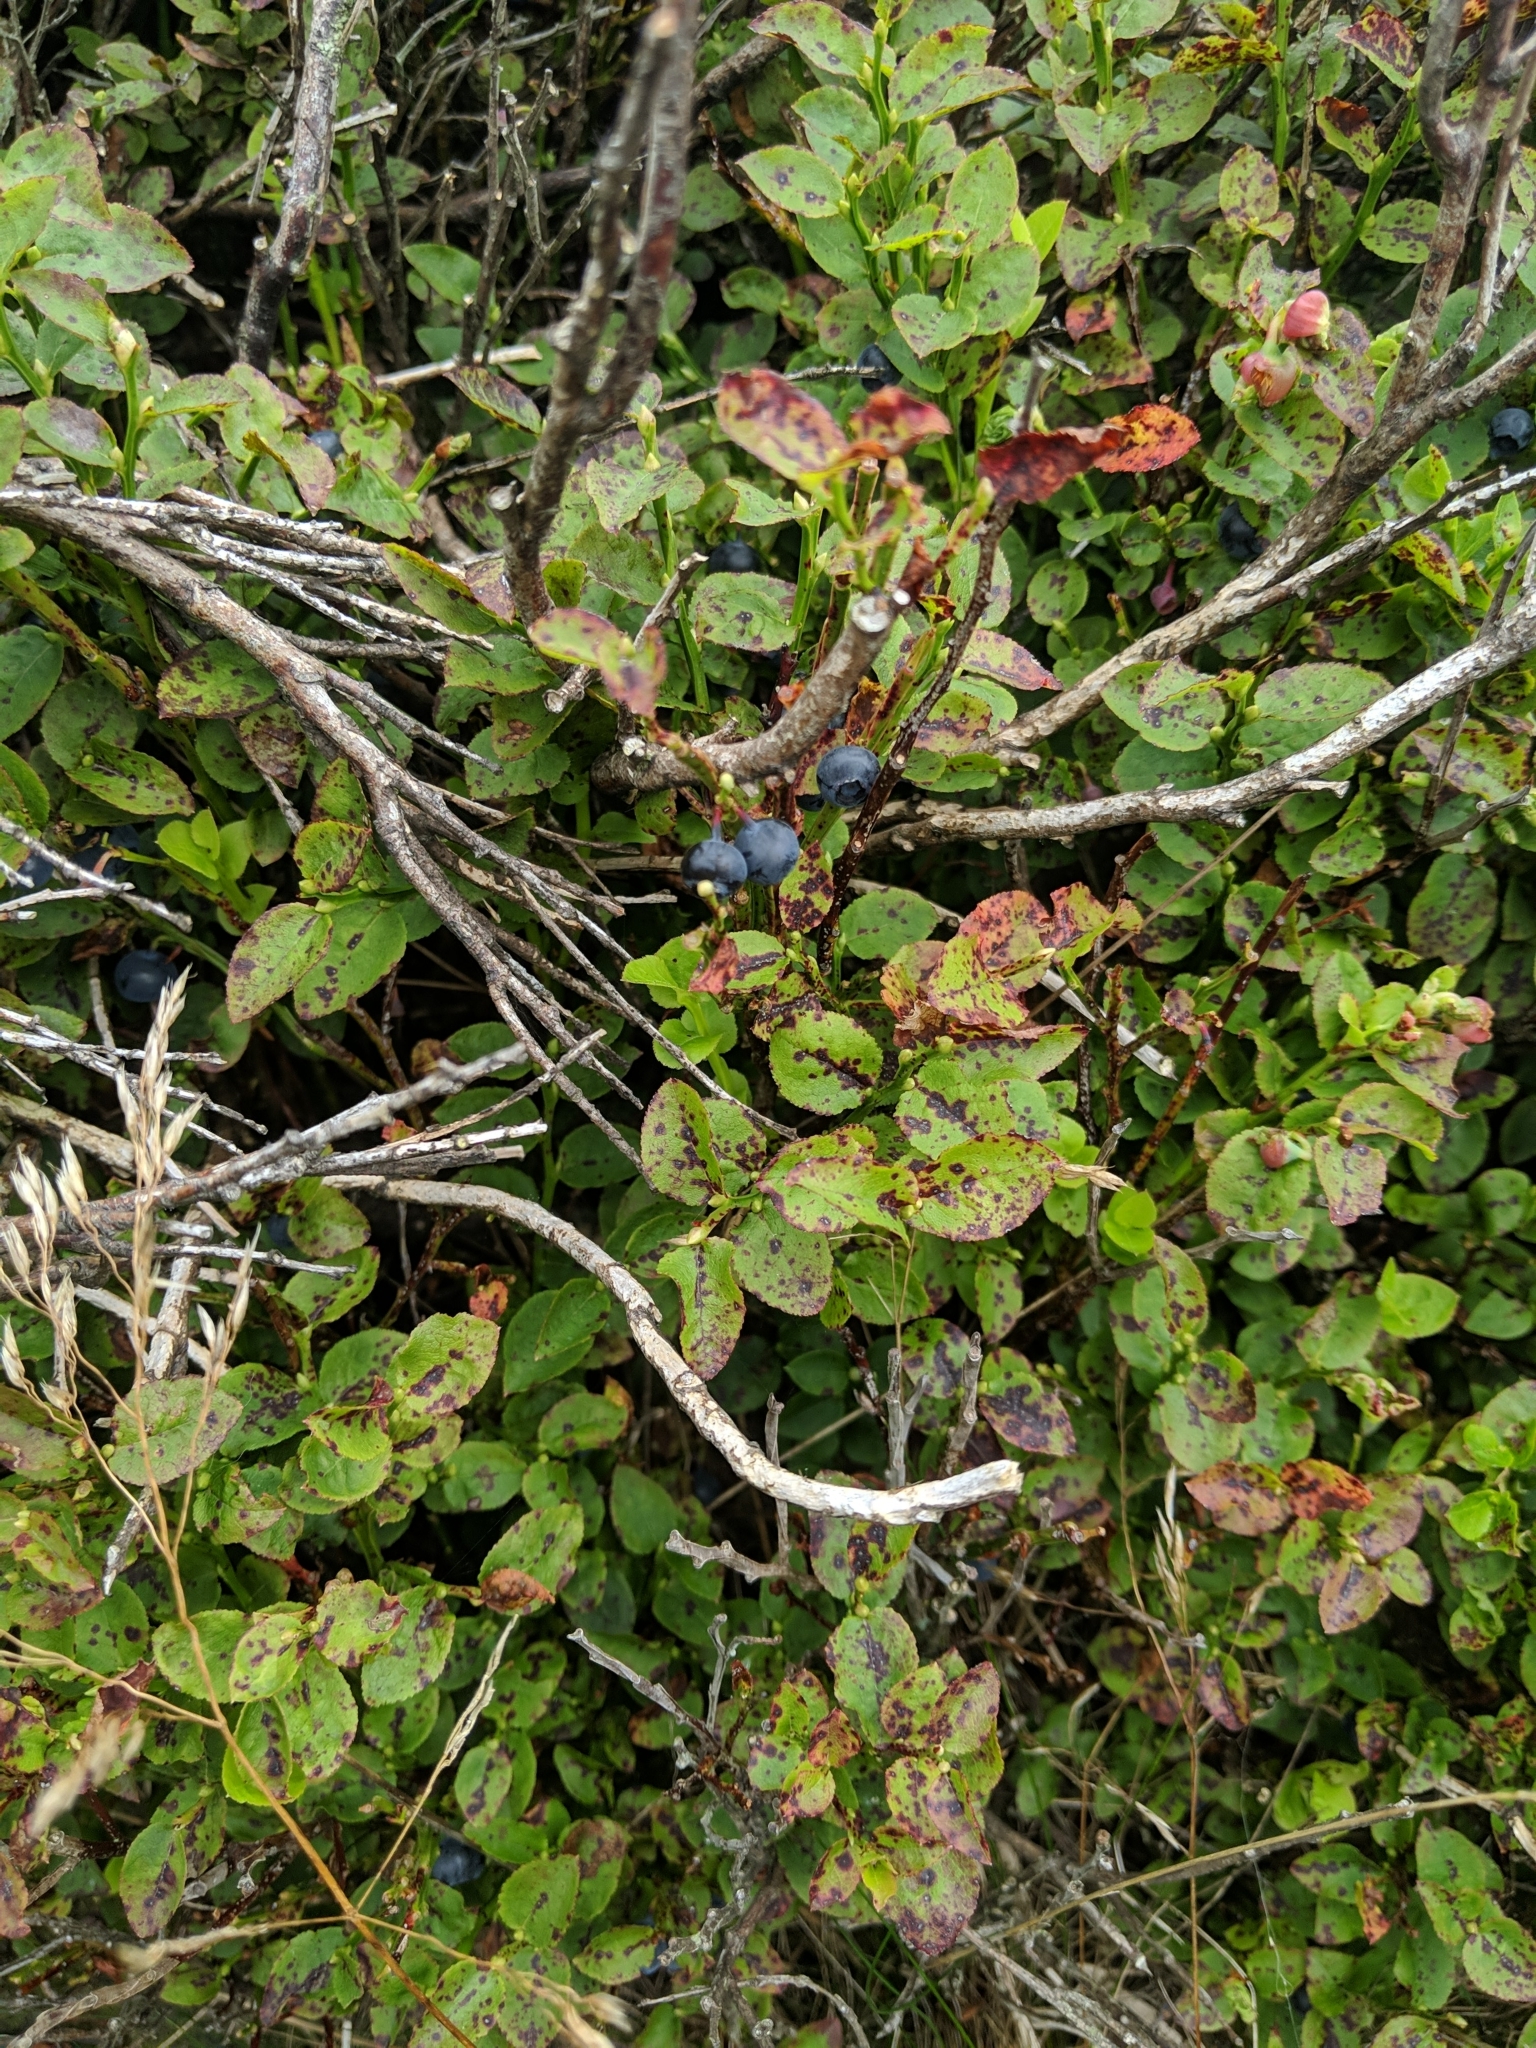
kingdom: Plantae
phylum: Tracheophyta
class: Magnoliopsida
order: Ericales
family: Ericaceae
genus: Vaccinium
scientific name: Vaccinium myrtillus
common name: Bilberry
